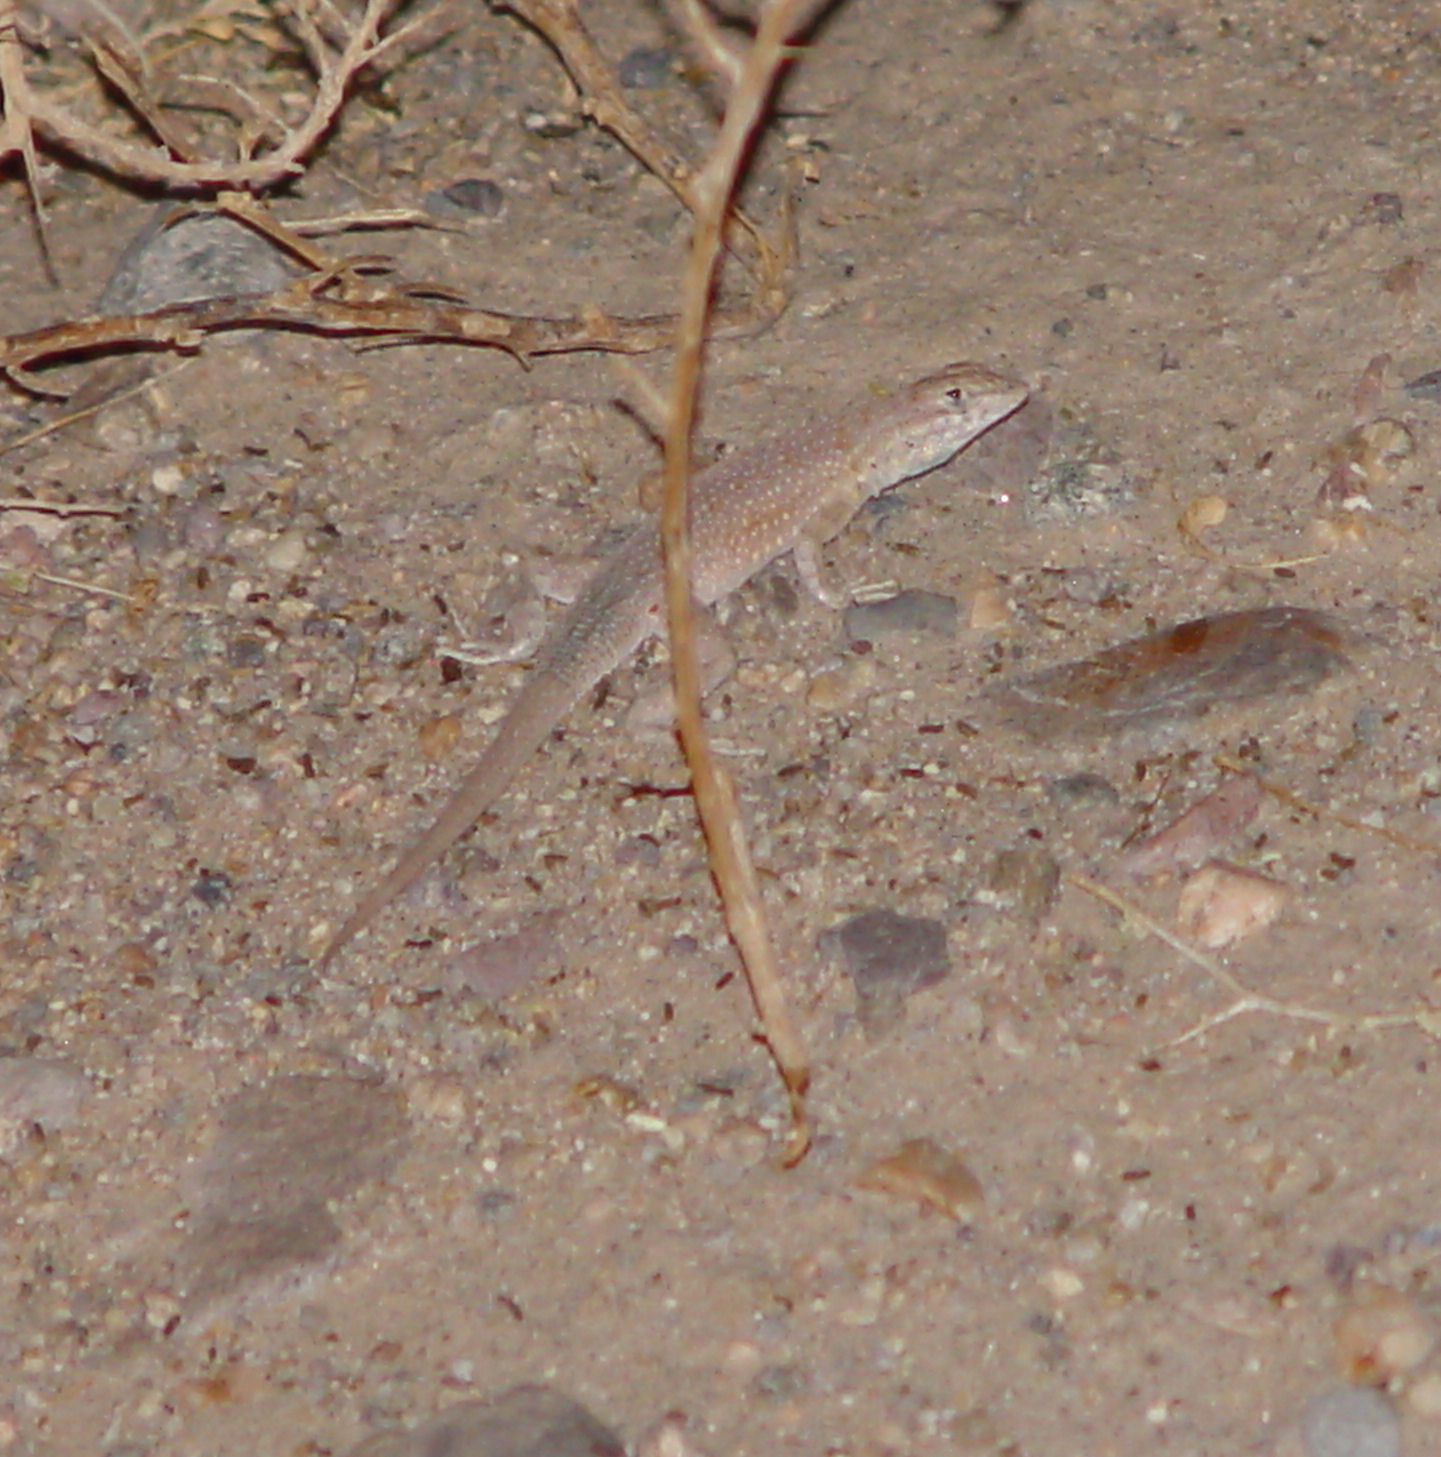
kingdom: Animalia
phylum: Chordata
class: Squamata
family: Phrynosomatidae
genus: Uta
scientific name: Uta stansburiana
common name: Side-blotched lizard
